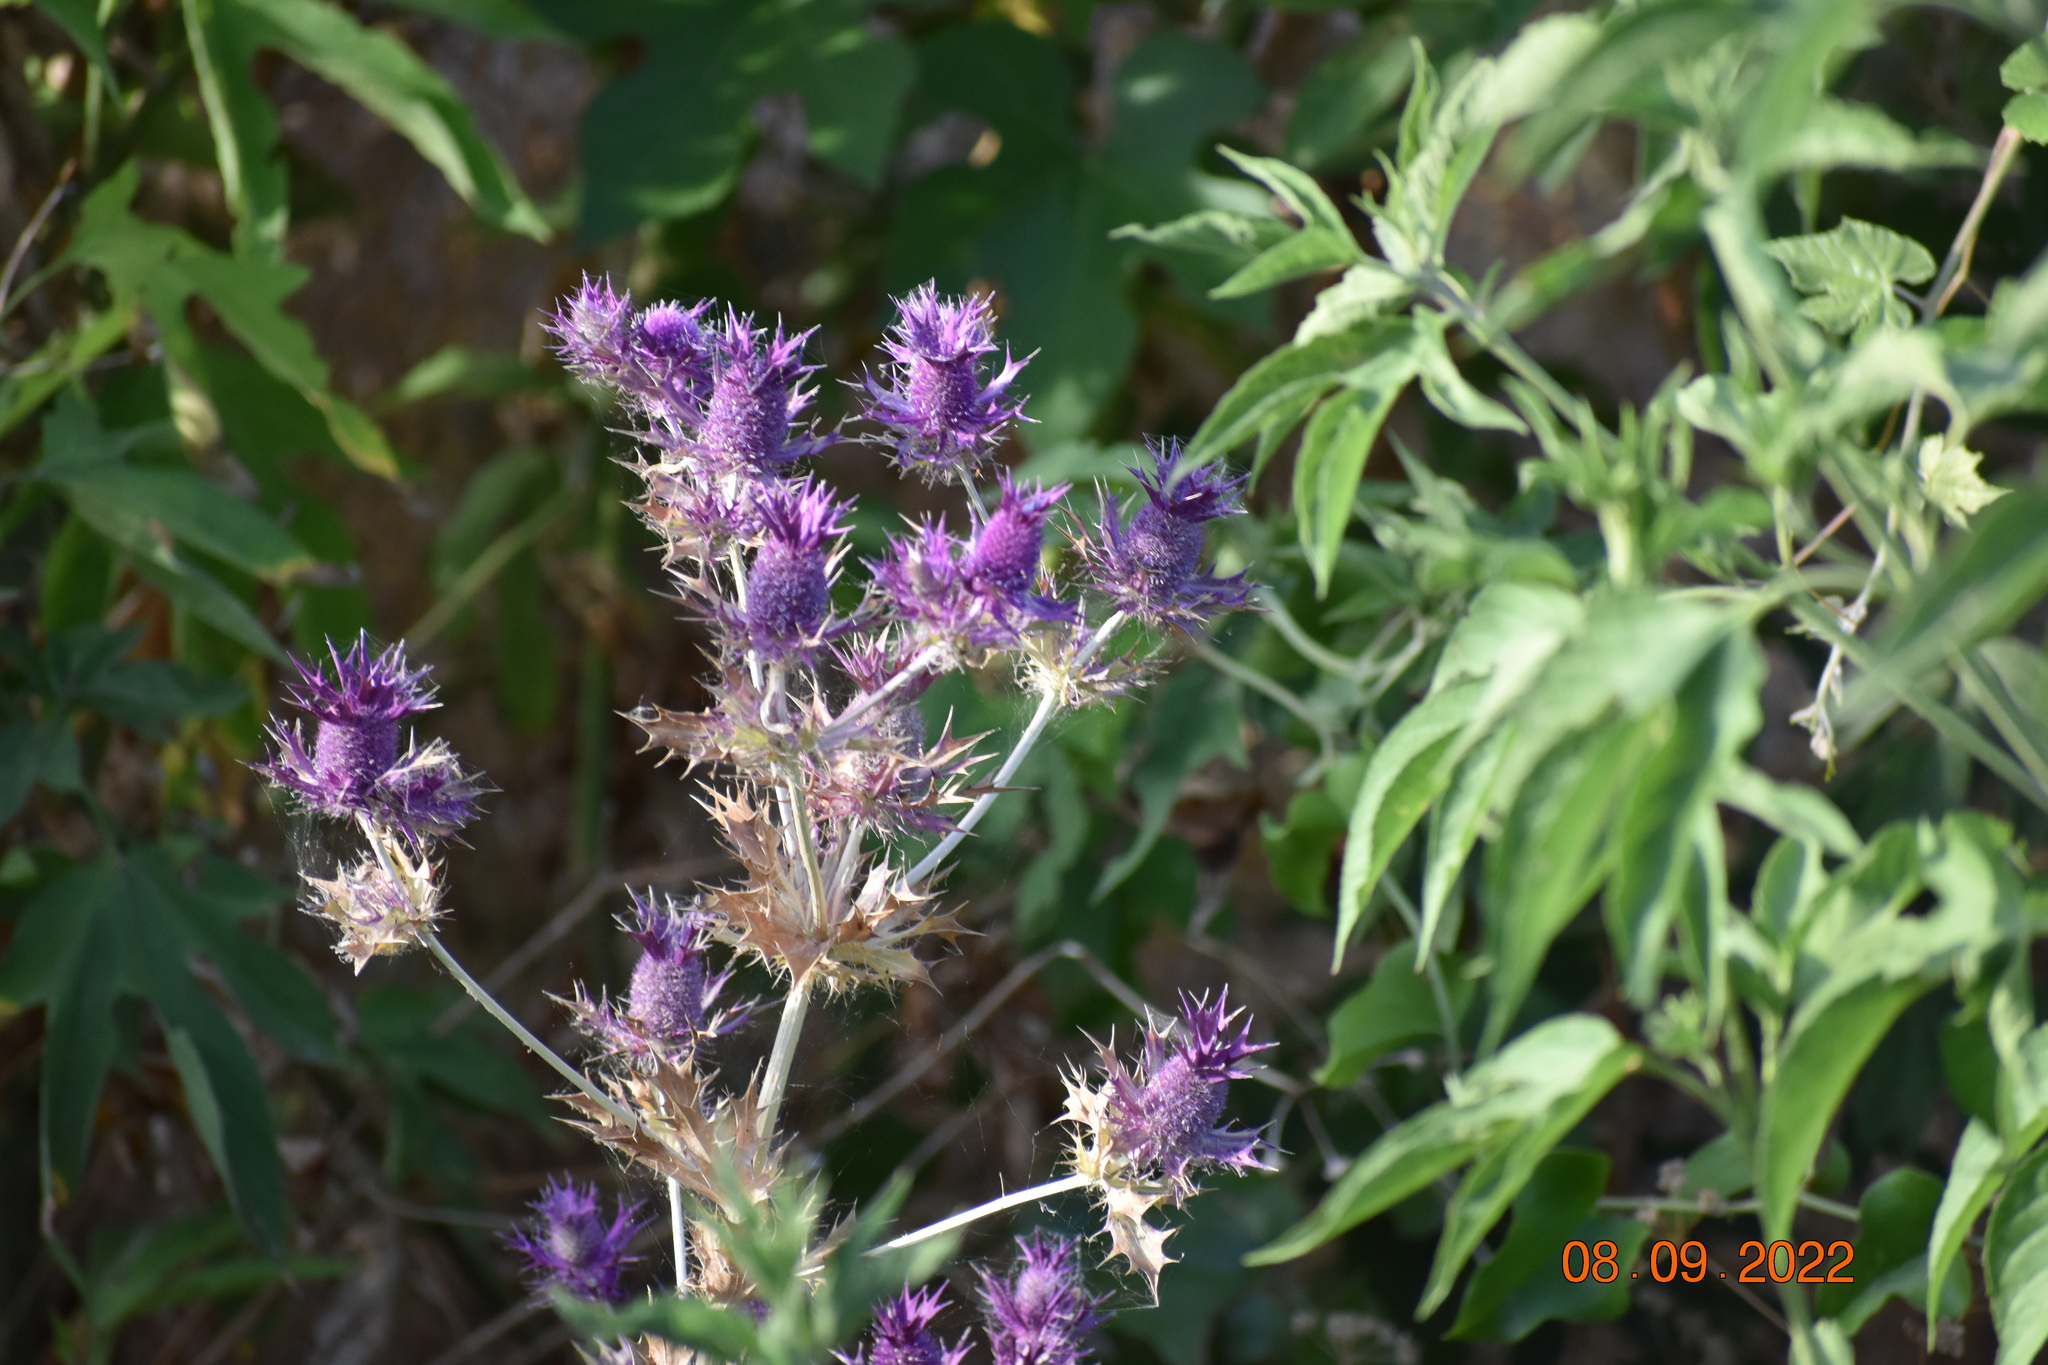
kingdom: Plantae
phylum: Tracheophyta
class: Magnoliopsida
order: Apiales
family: Apiaceae
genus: Eryngium
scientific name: Eryngium leavenworthii
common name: Leavenworth's eryngo
